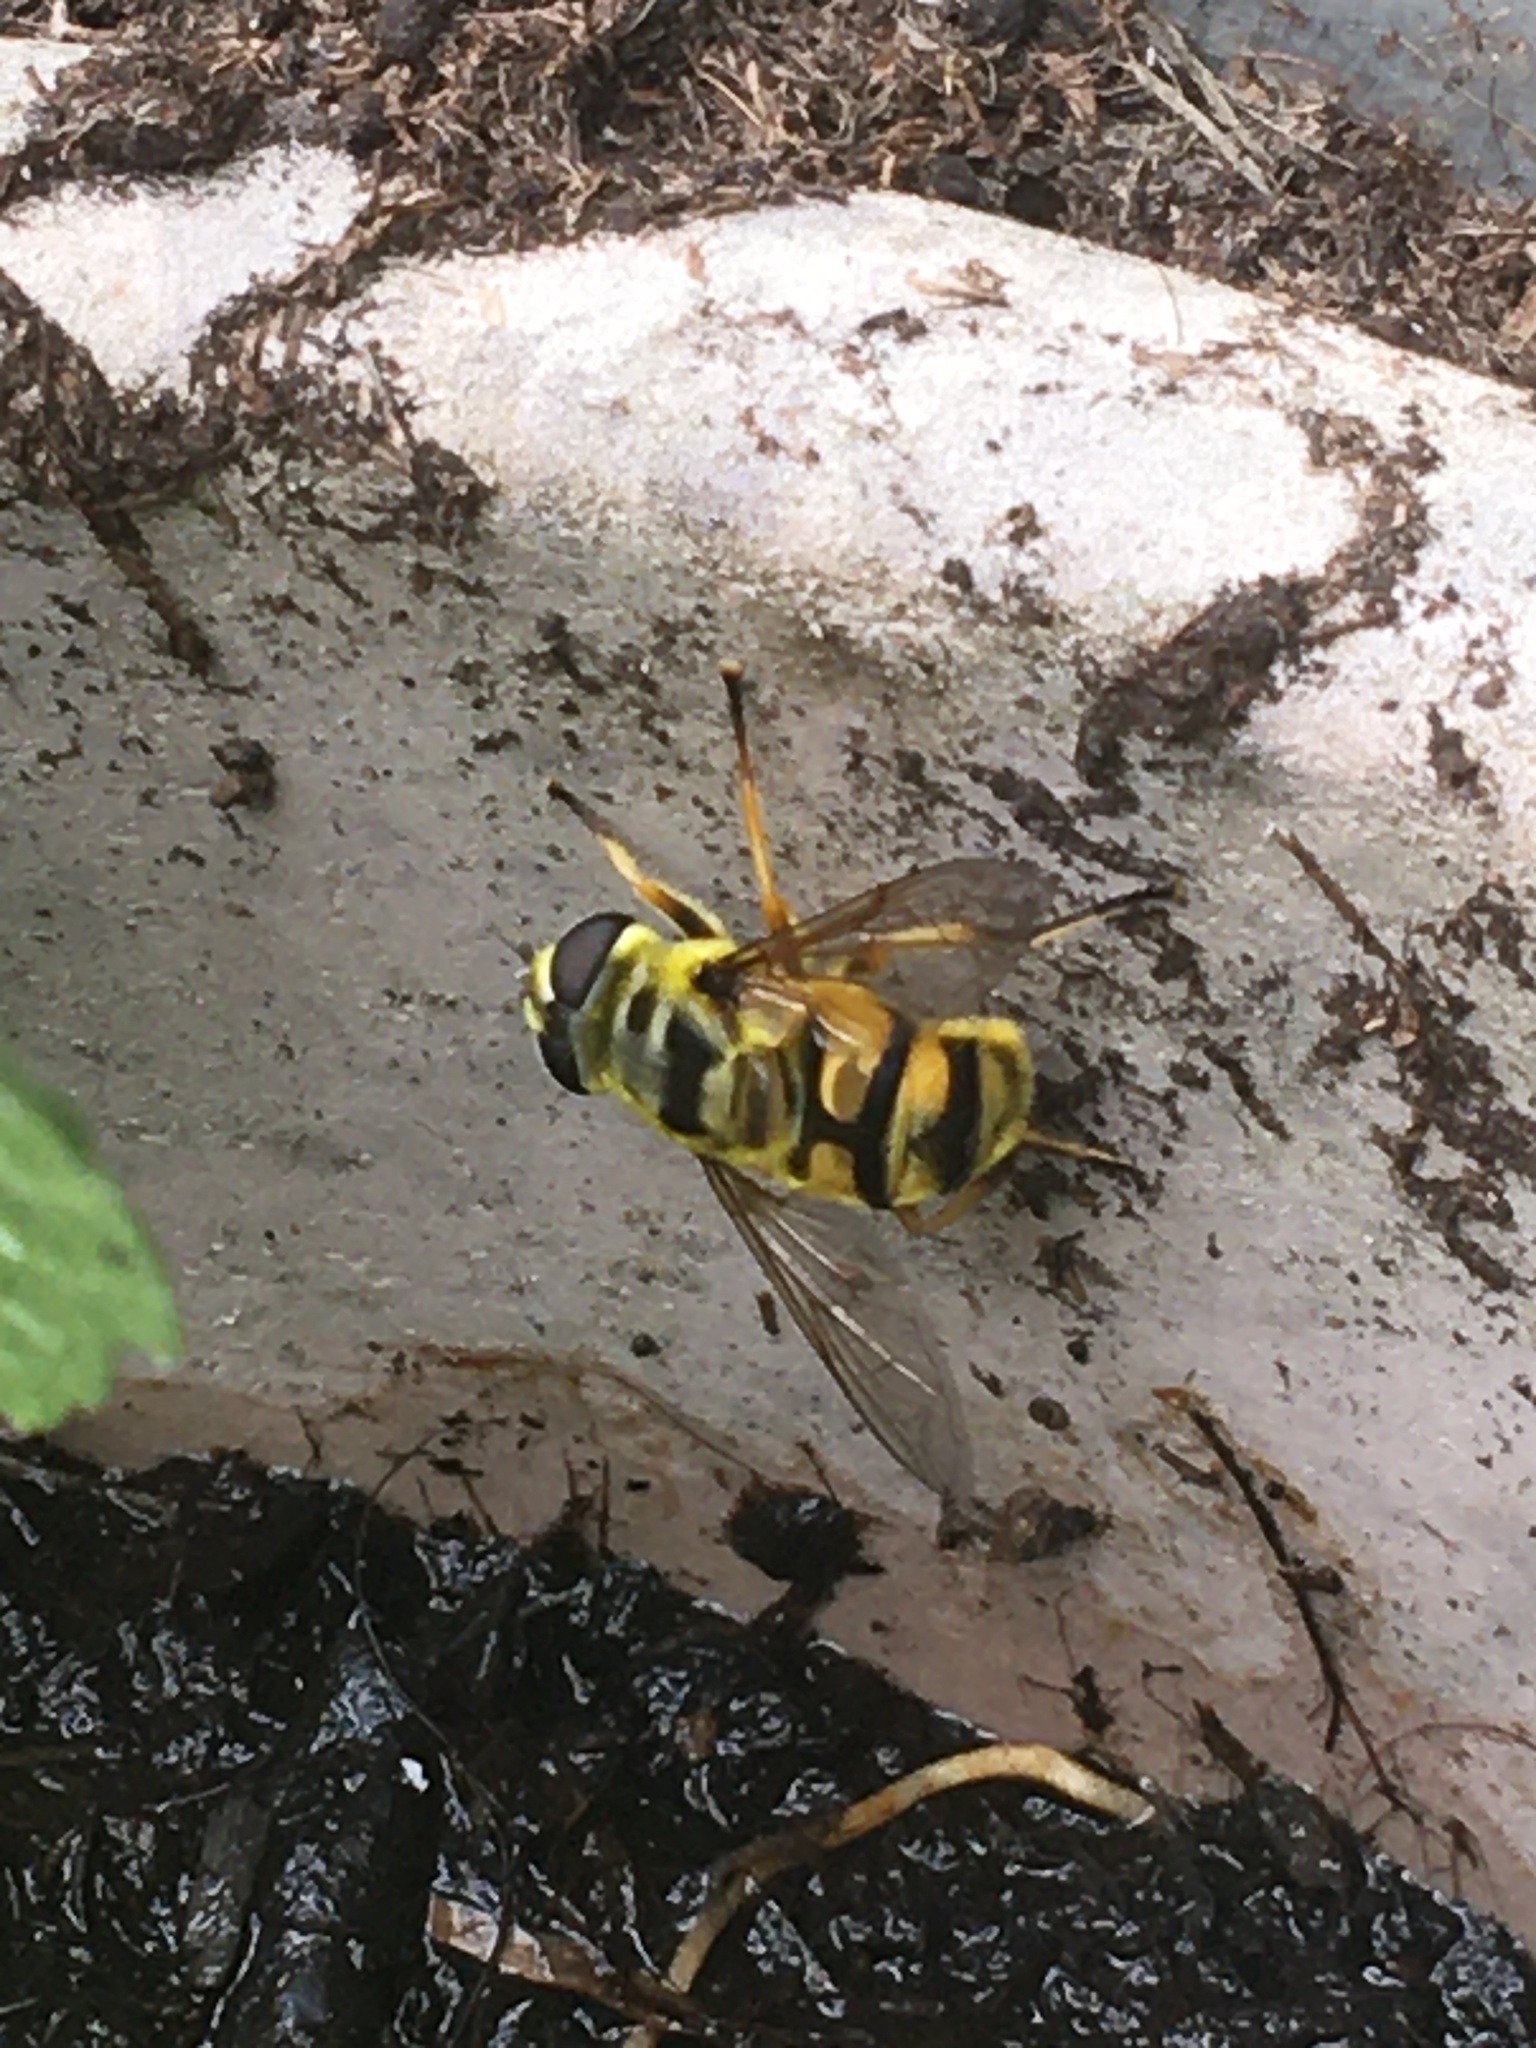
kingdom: Animalia
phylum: Arthropoda
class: Insecta
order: Diptera
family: Syrphidae
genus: Myathropa
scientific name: Myathropa florea
